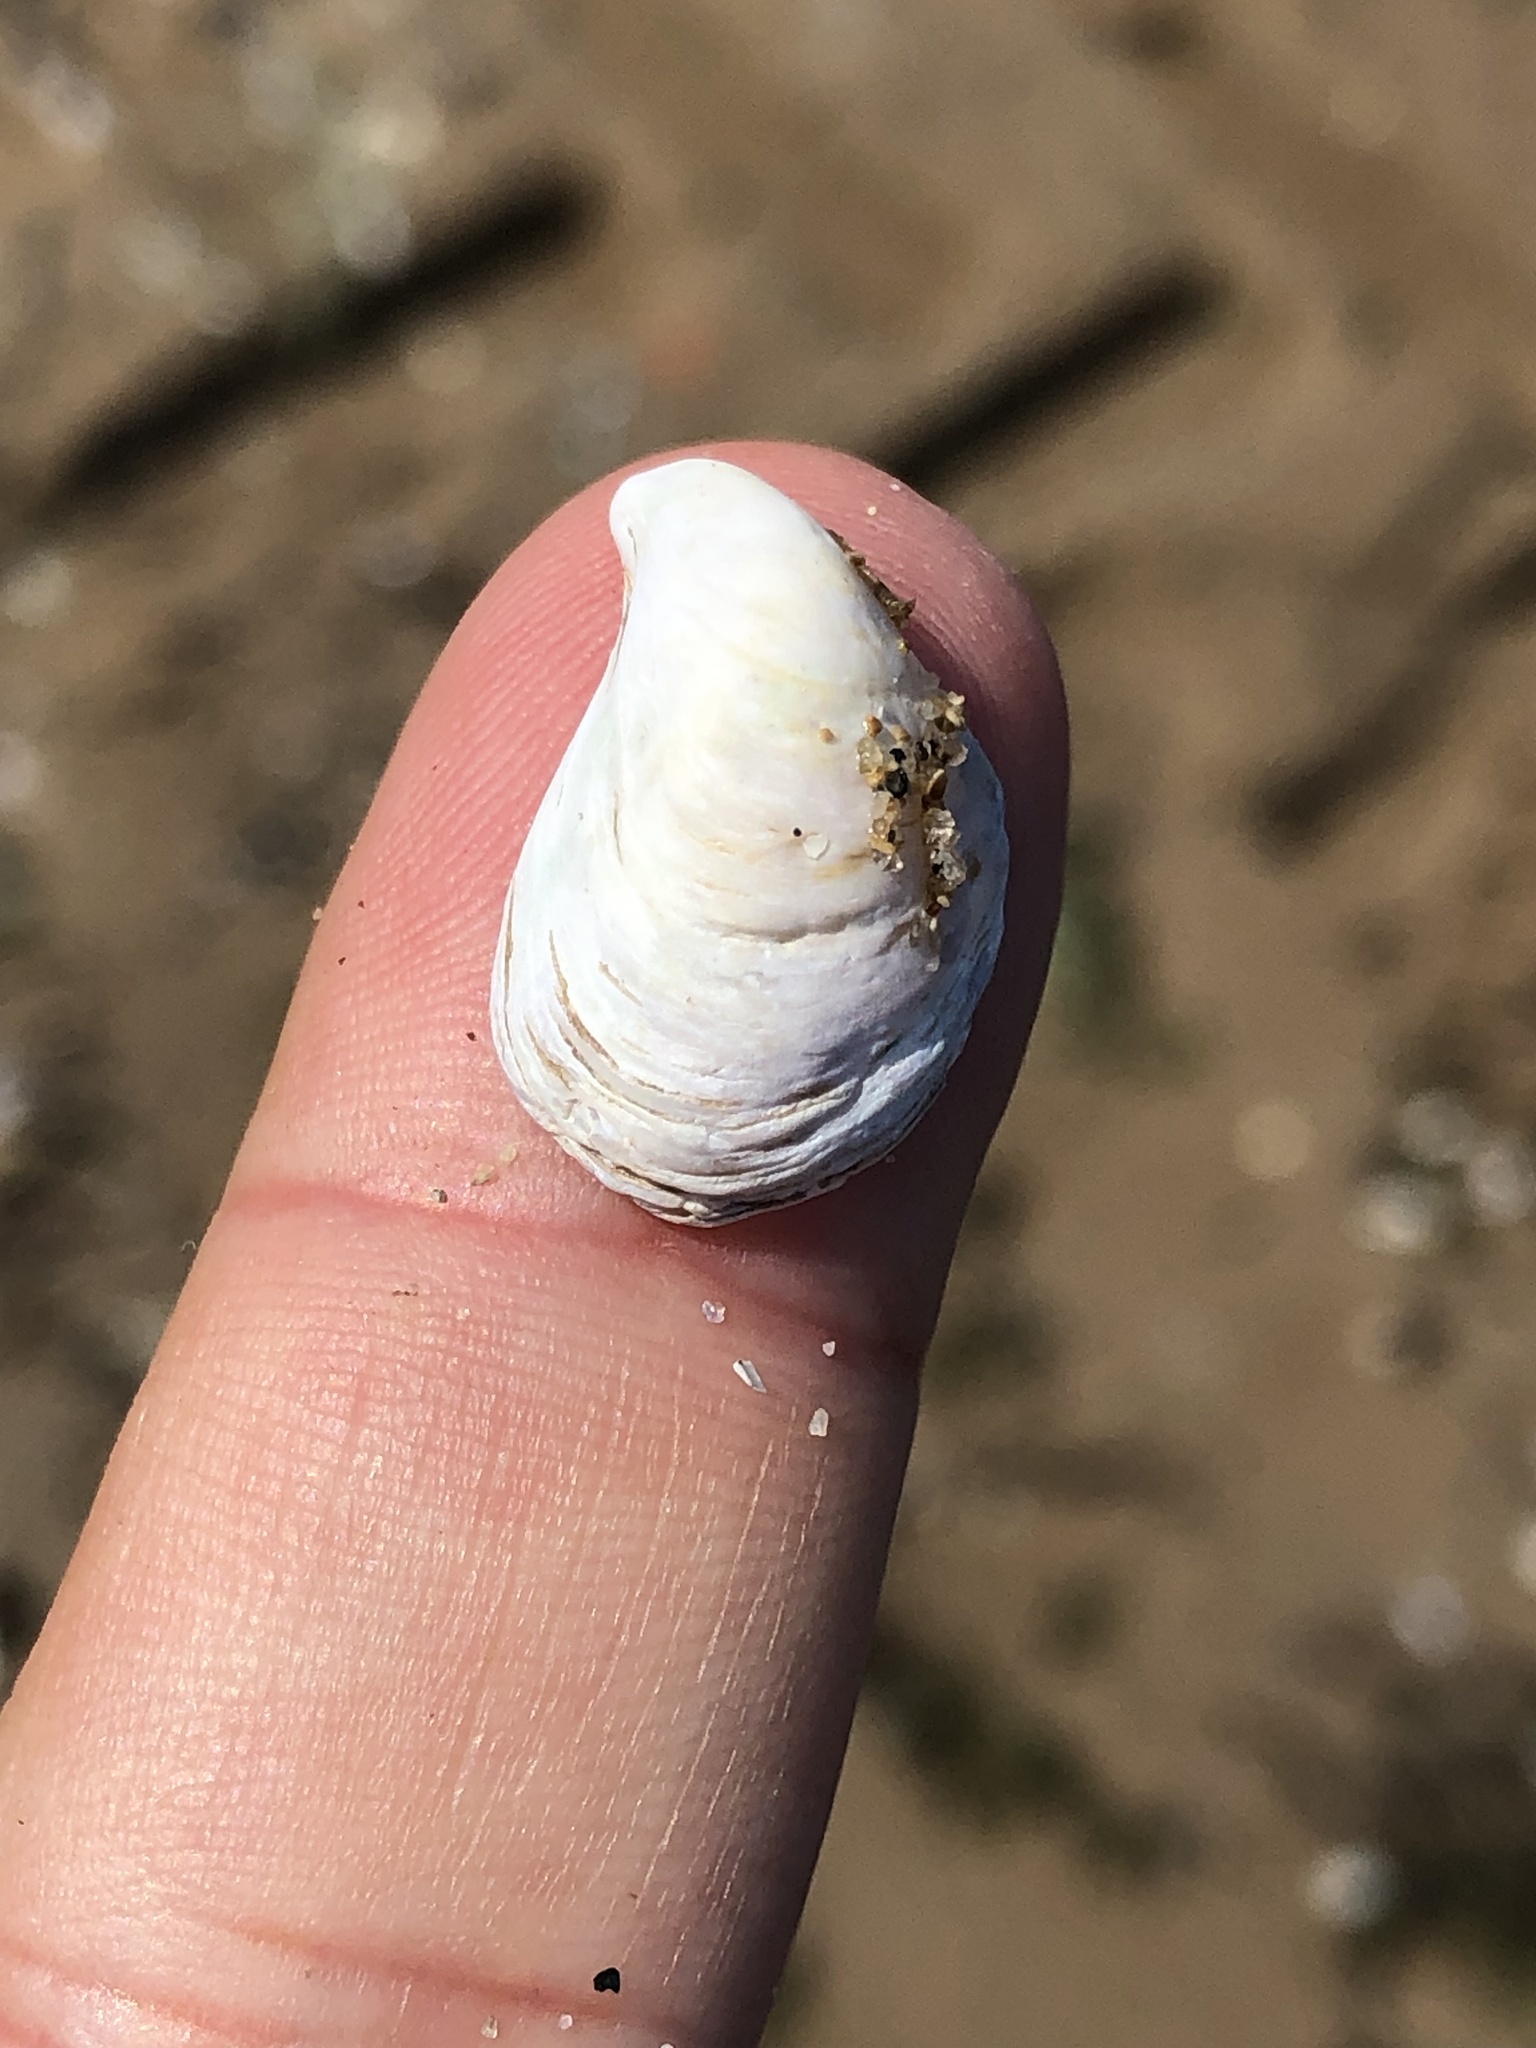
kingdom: Animalia
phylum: Mollusca
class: Bivalvia
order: Myida
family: Dreissenidae
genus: Dreissena
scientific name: Dreissena bugensis
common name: Quagga mussel
